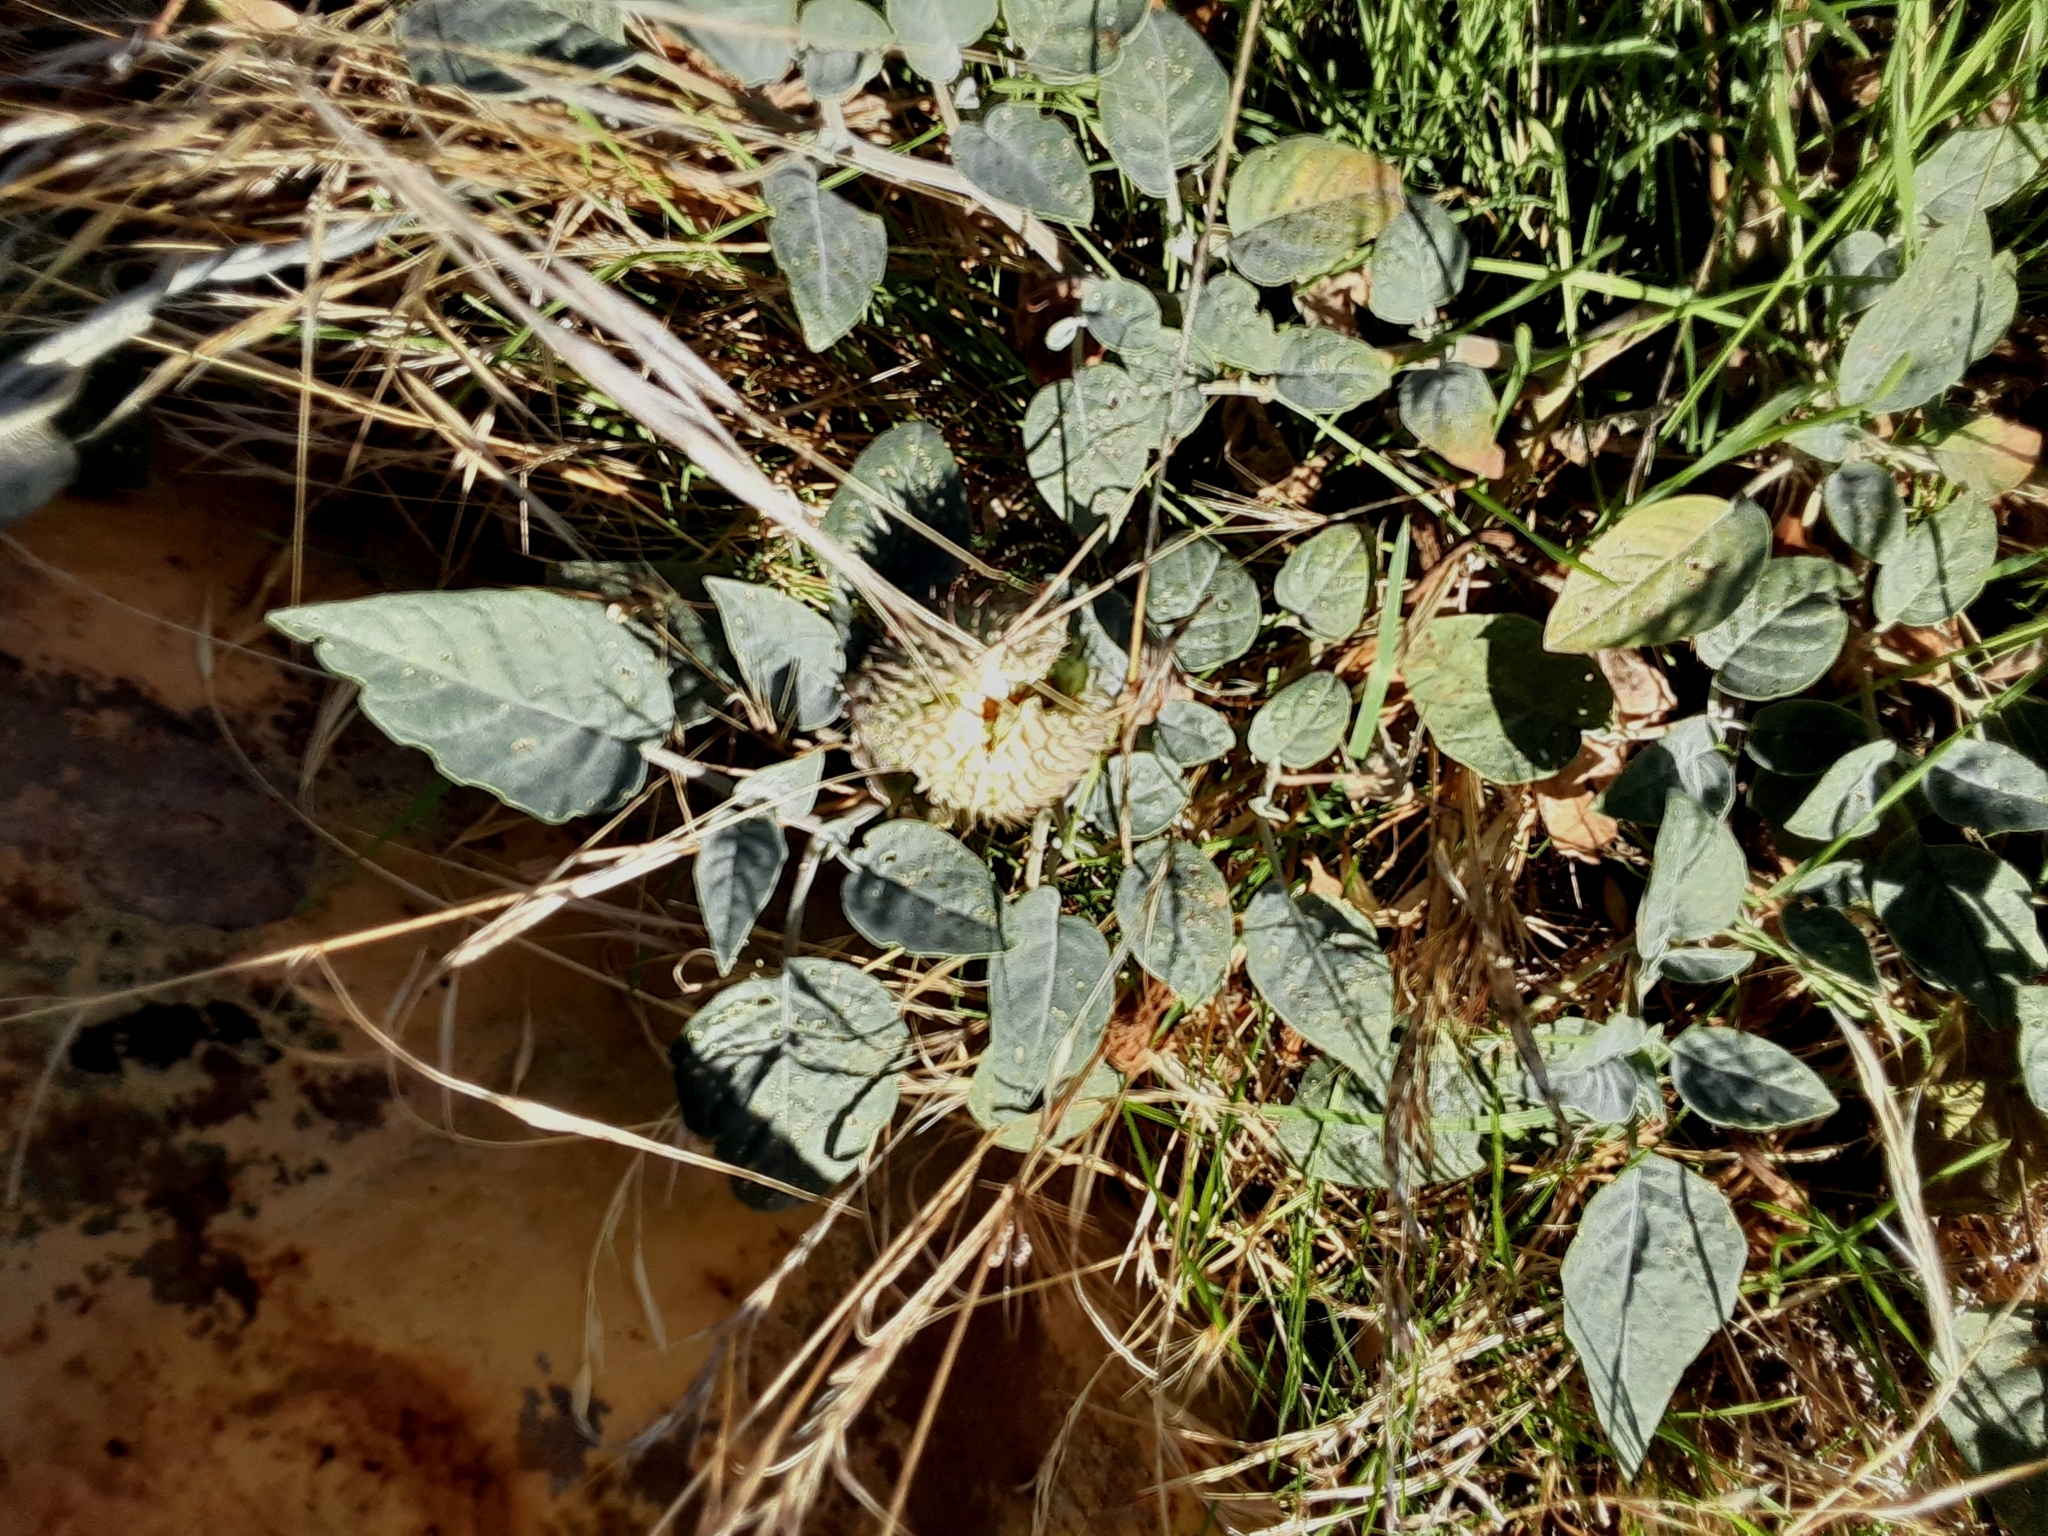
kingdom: Plantae
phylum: Tracheophyta
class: Magnoliopsida
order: Solanales
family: Solanaceae
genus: Datura
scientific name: Datura wrightii
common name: Sacred thorn-apple
